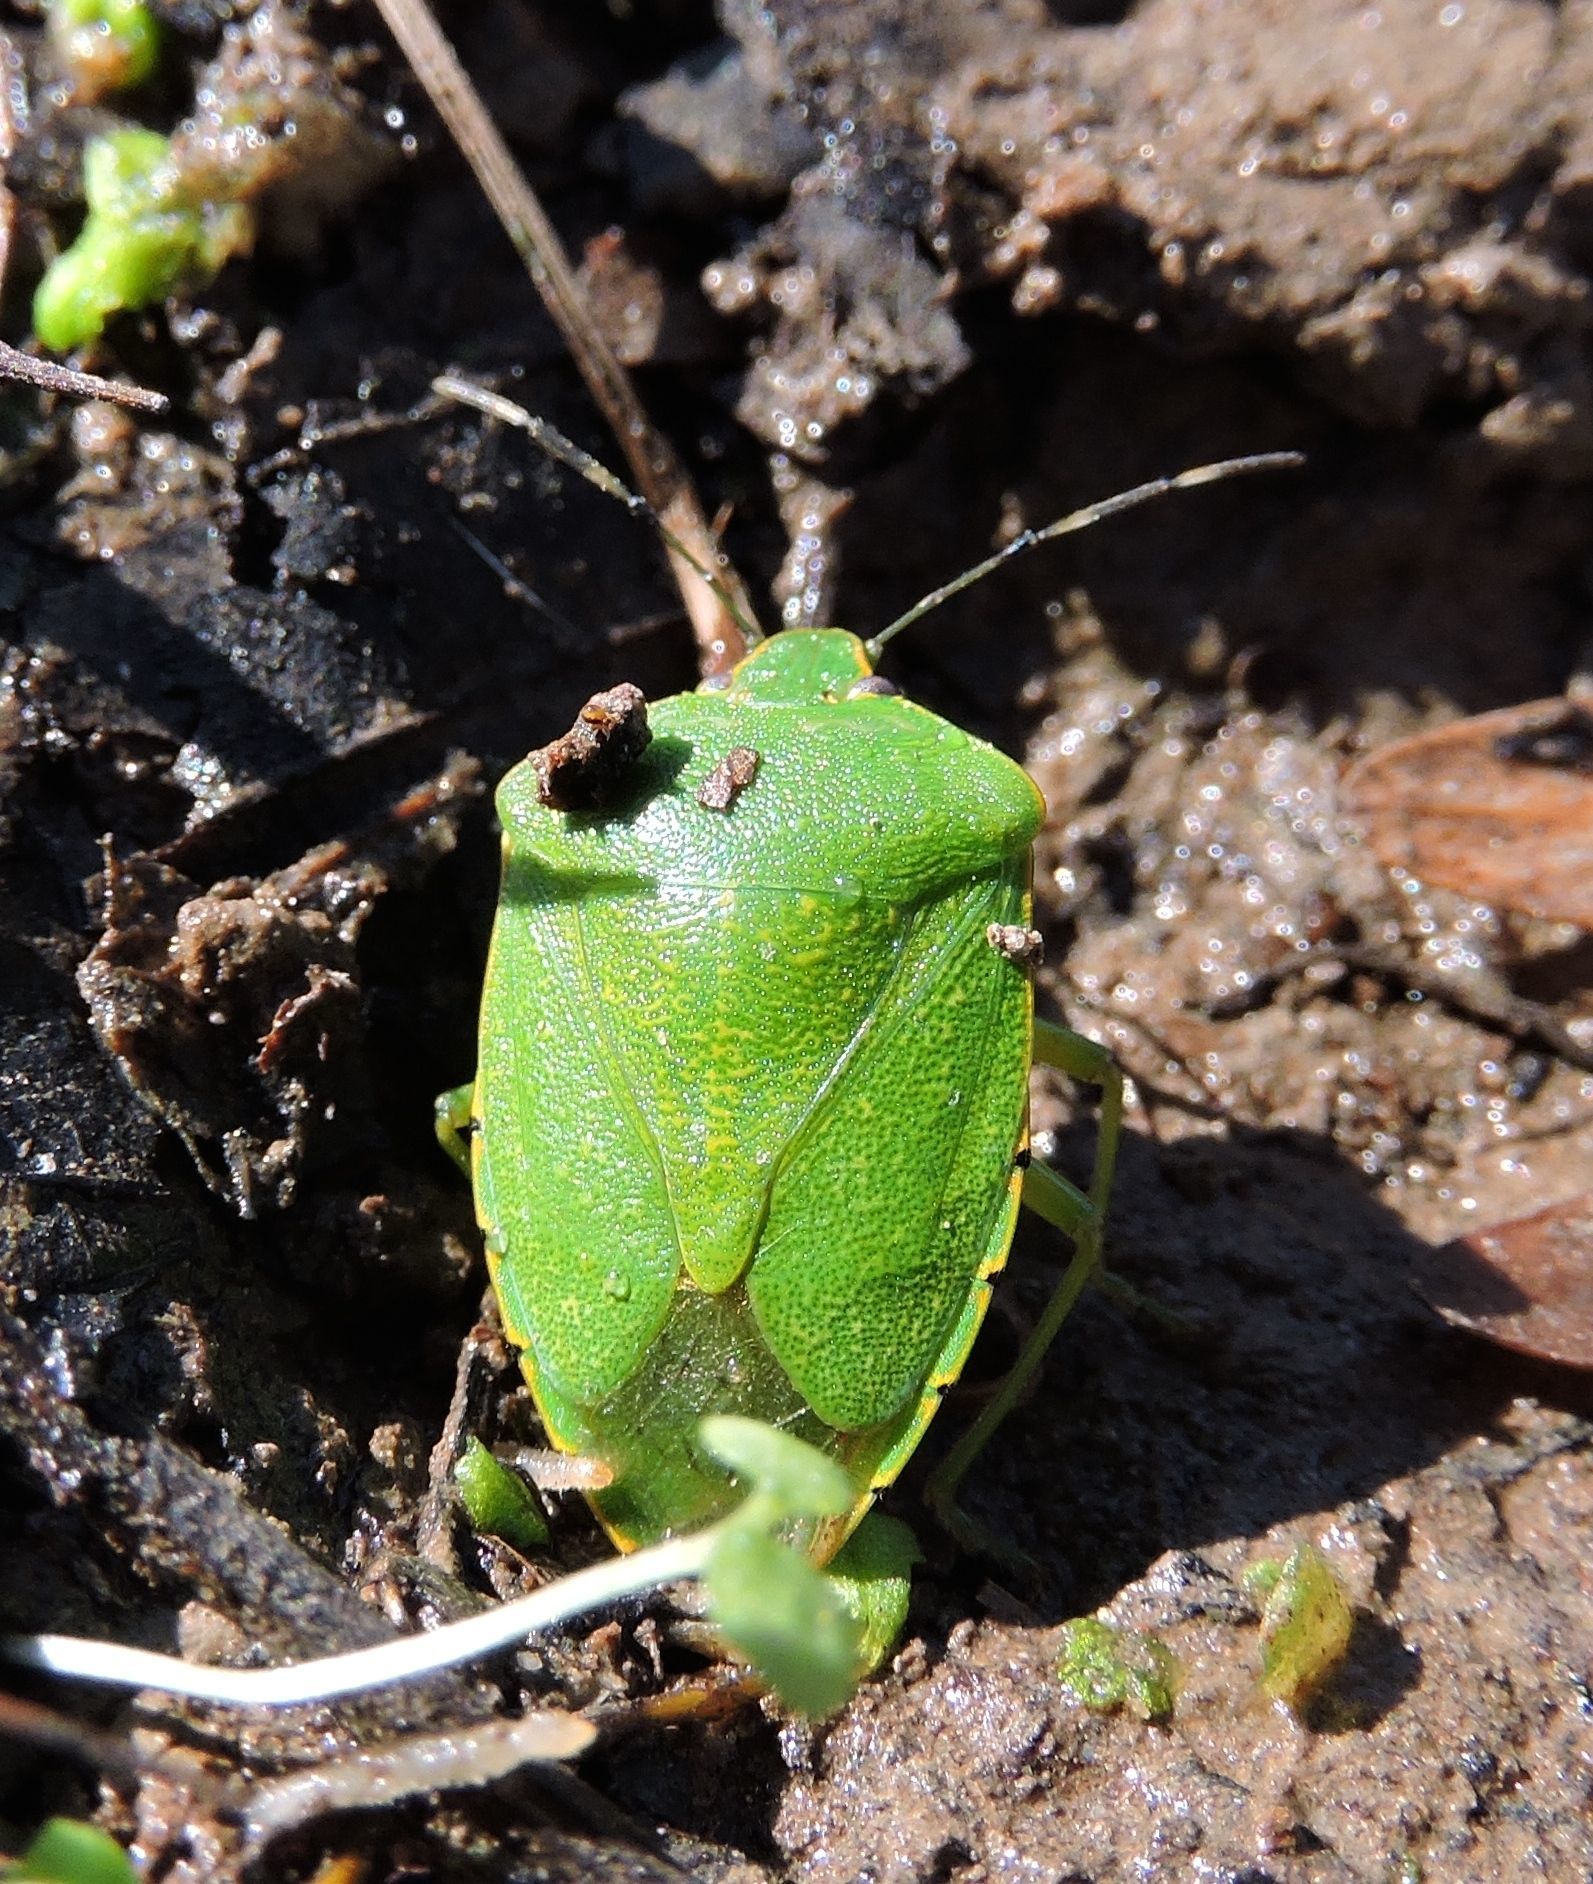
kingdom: Animalia
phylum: Arthropoda
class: Insecta
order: Hemiptera
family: Pentatomidae
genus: Chinavia
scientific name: Chinavia hilaris
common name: Green stink bug
